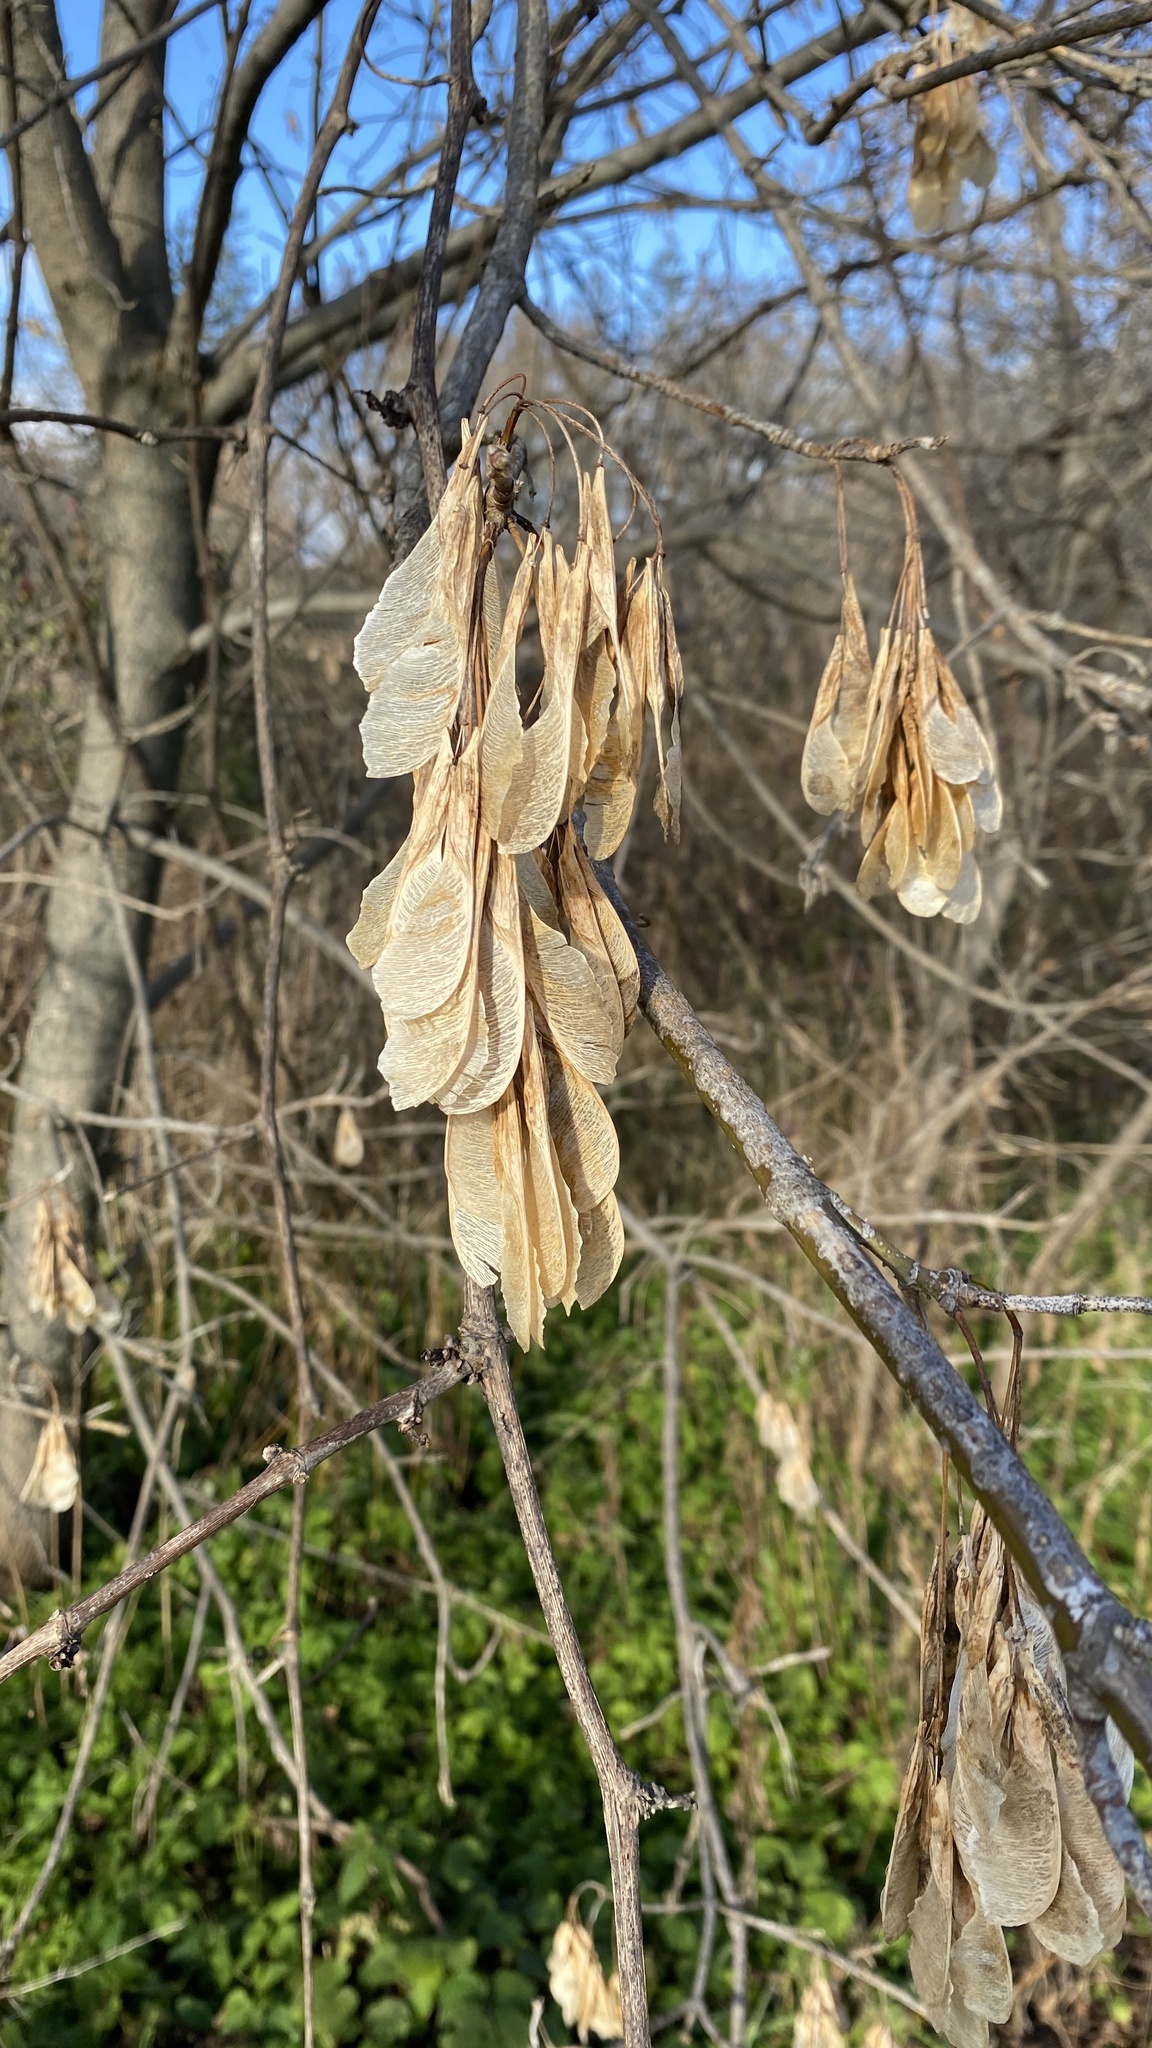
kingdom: Plantae
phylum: Tracheophyta
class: Magnoliopsida
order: Sapindales
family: Sapindaceae
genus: Acer
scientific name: Acer negundo
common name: Ashleaf maple
